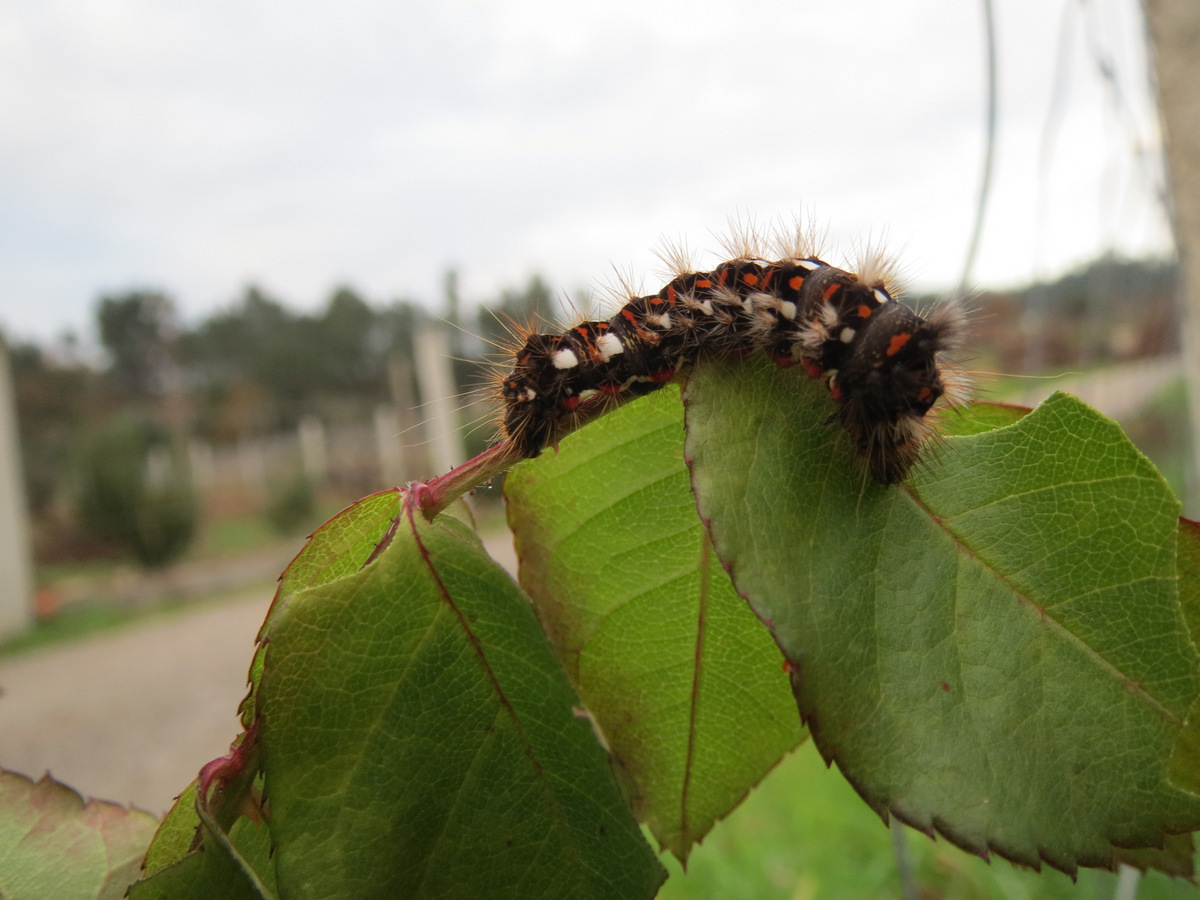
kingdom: Animalia
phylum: Arthropoda
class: Insecta
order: Lepidoptera
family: Noctuidae
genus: Acronicta
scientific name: Acronicta rumicis
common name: Knot grass
